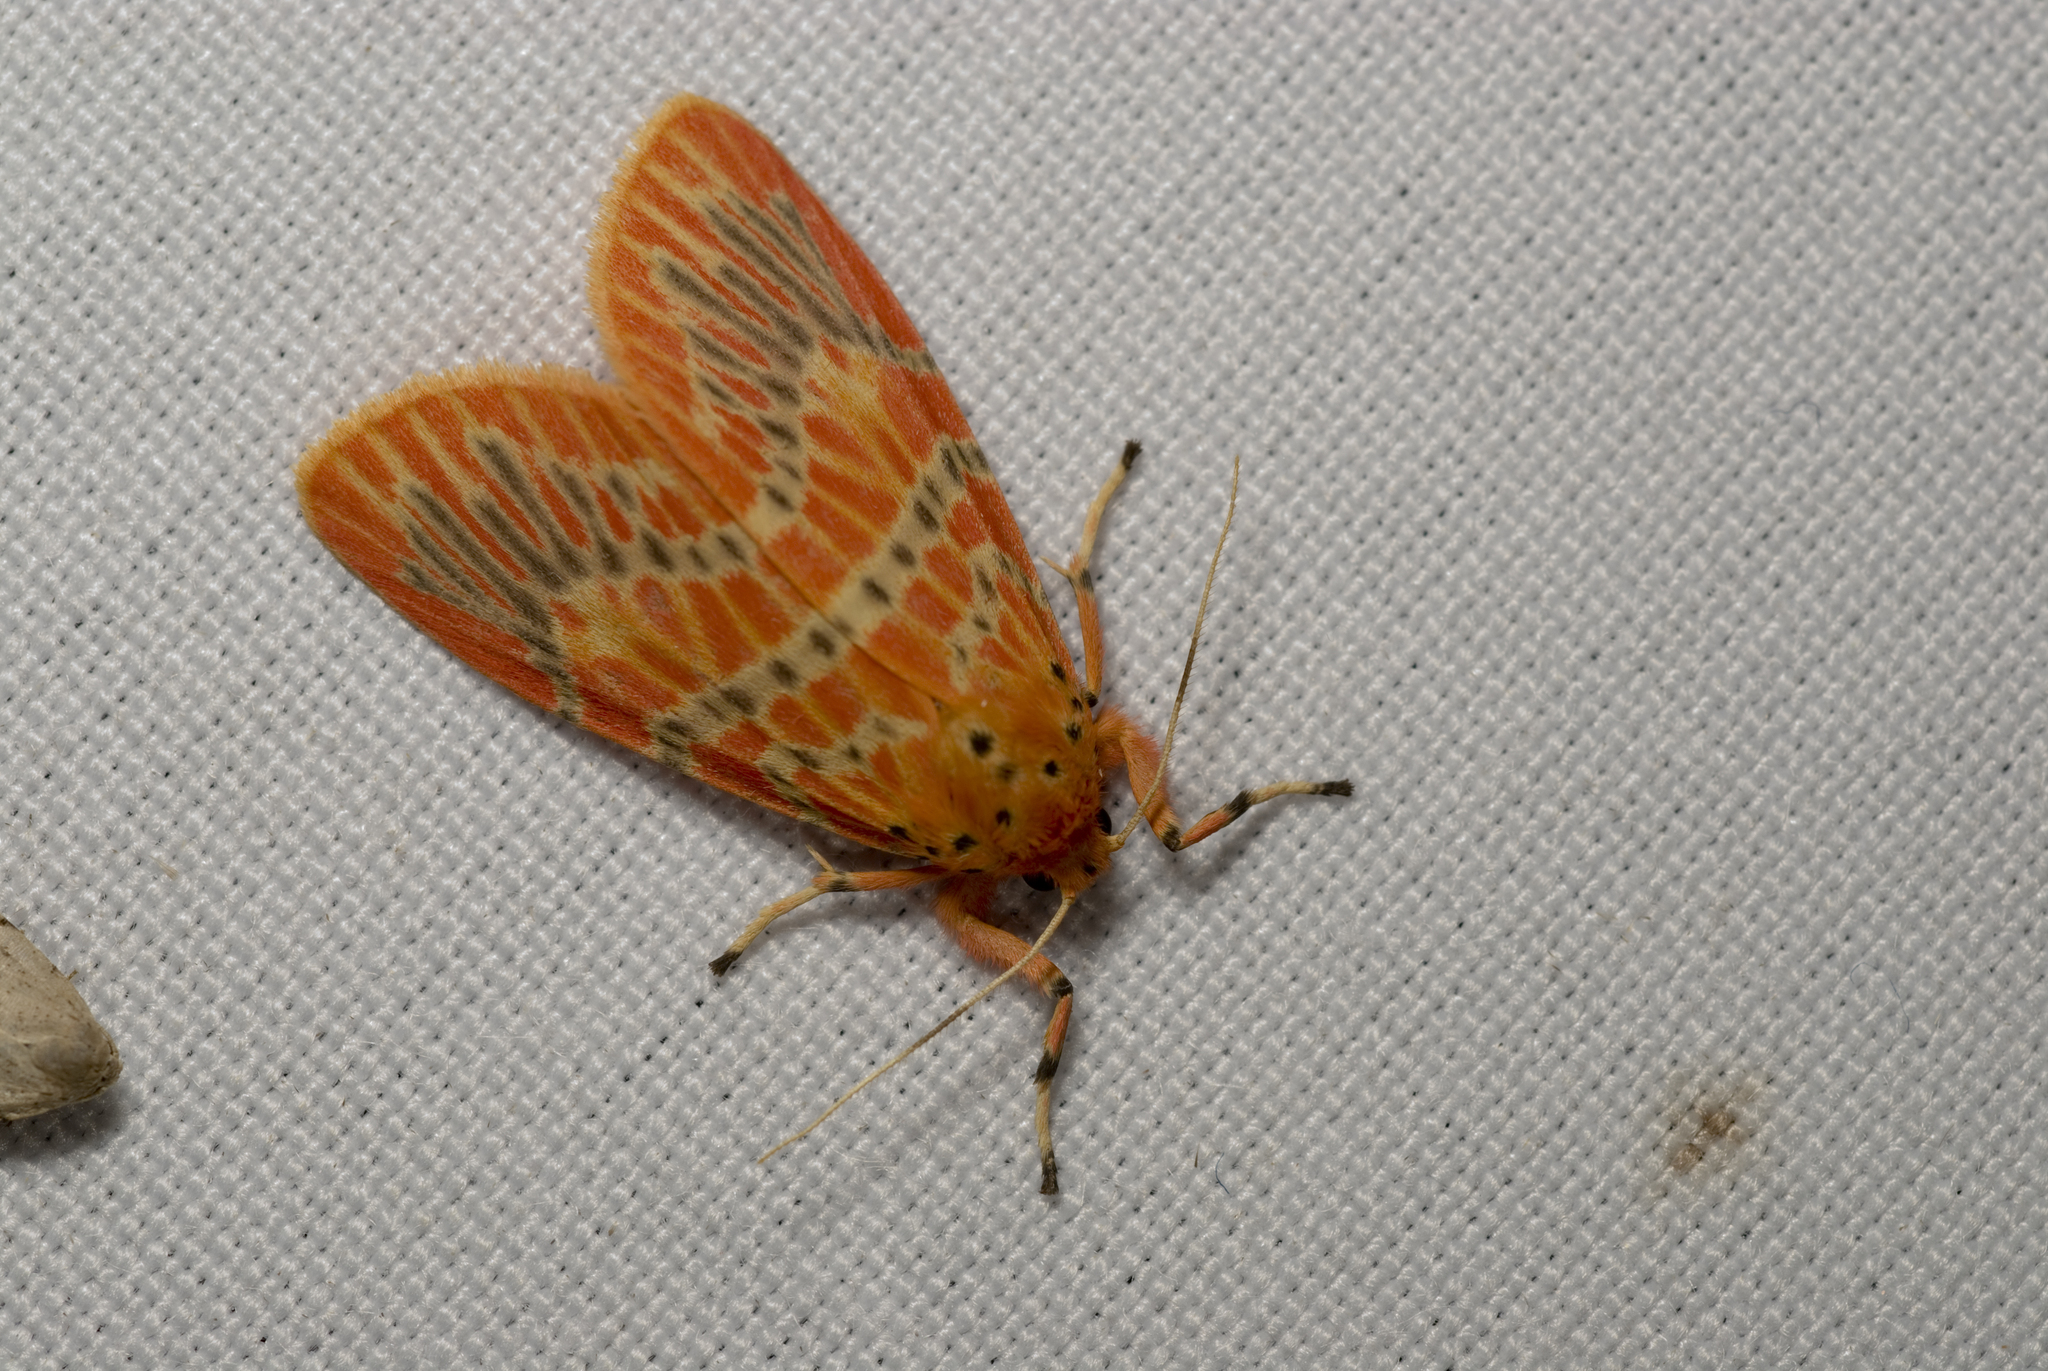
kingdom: Animalia
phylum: Arthropoda
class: Insecta
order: Lepidoptera
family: Erebidae
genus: Barsine
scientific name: Barsine sauteri
